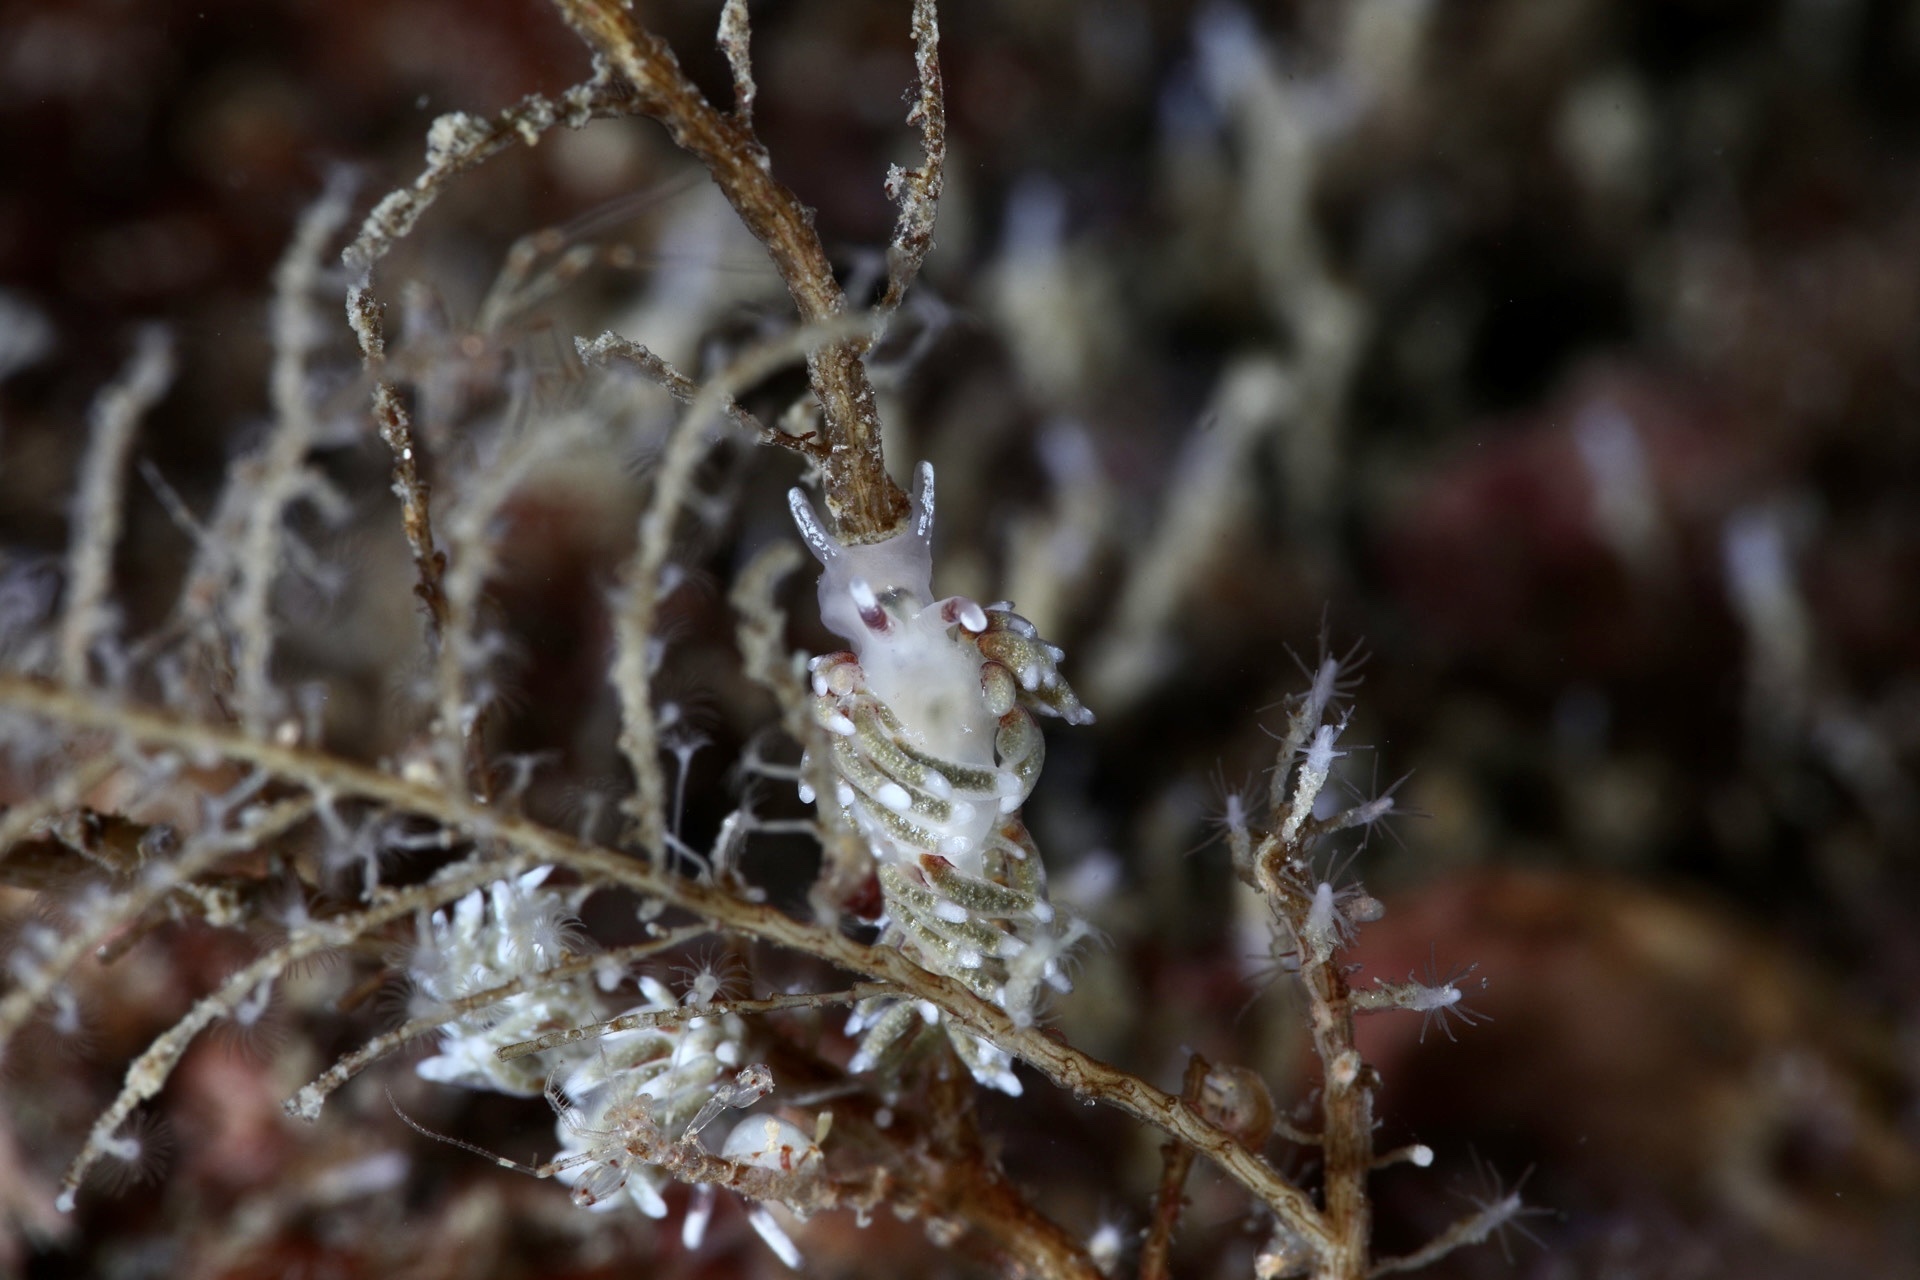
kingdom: Animalia
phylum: Mollusca
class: Gastropoda
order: Nudibranchia
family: Trinchesiidae
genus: Rubramoena
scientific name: Rubramoena rubescens
